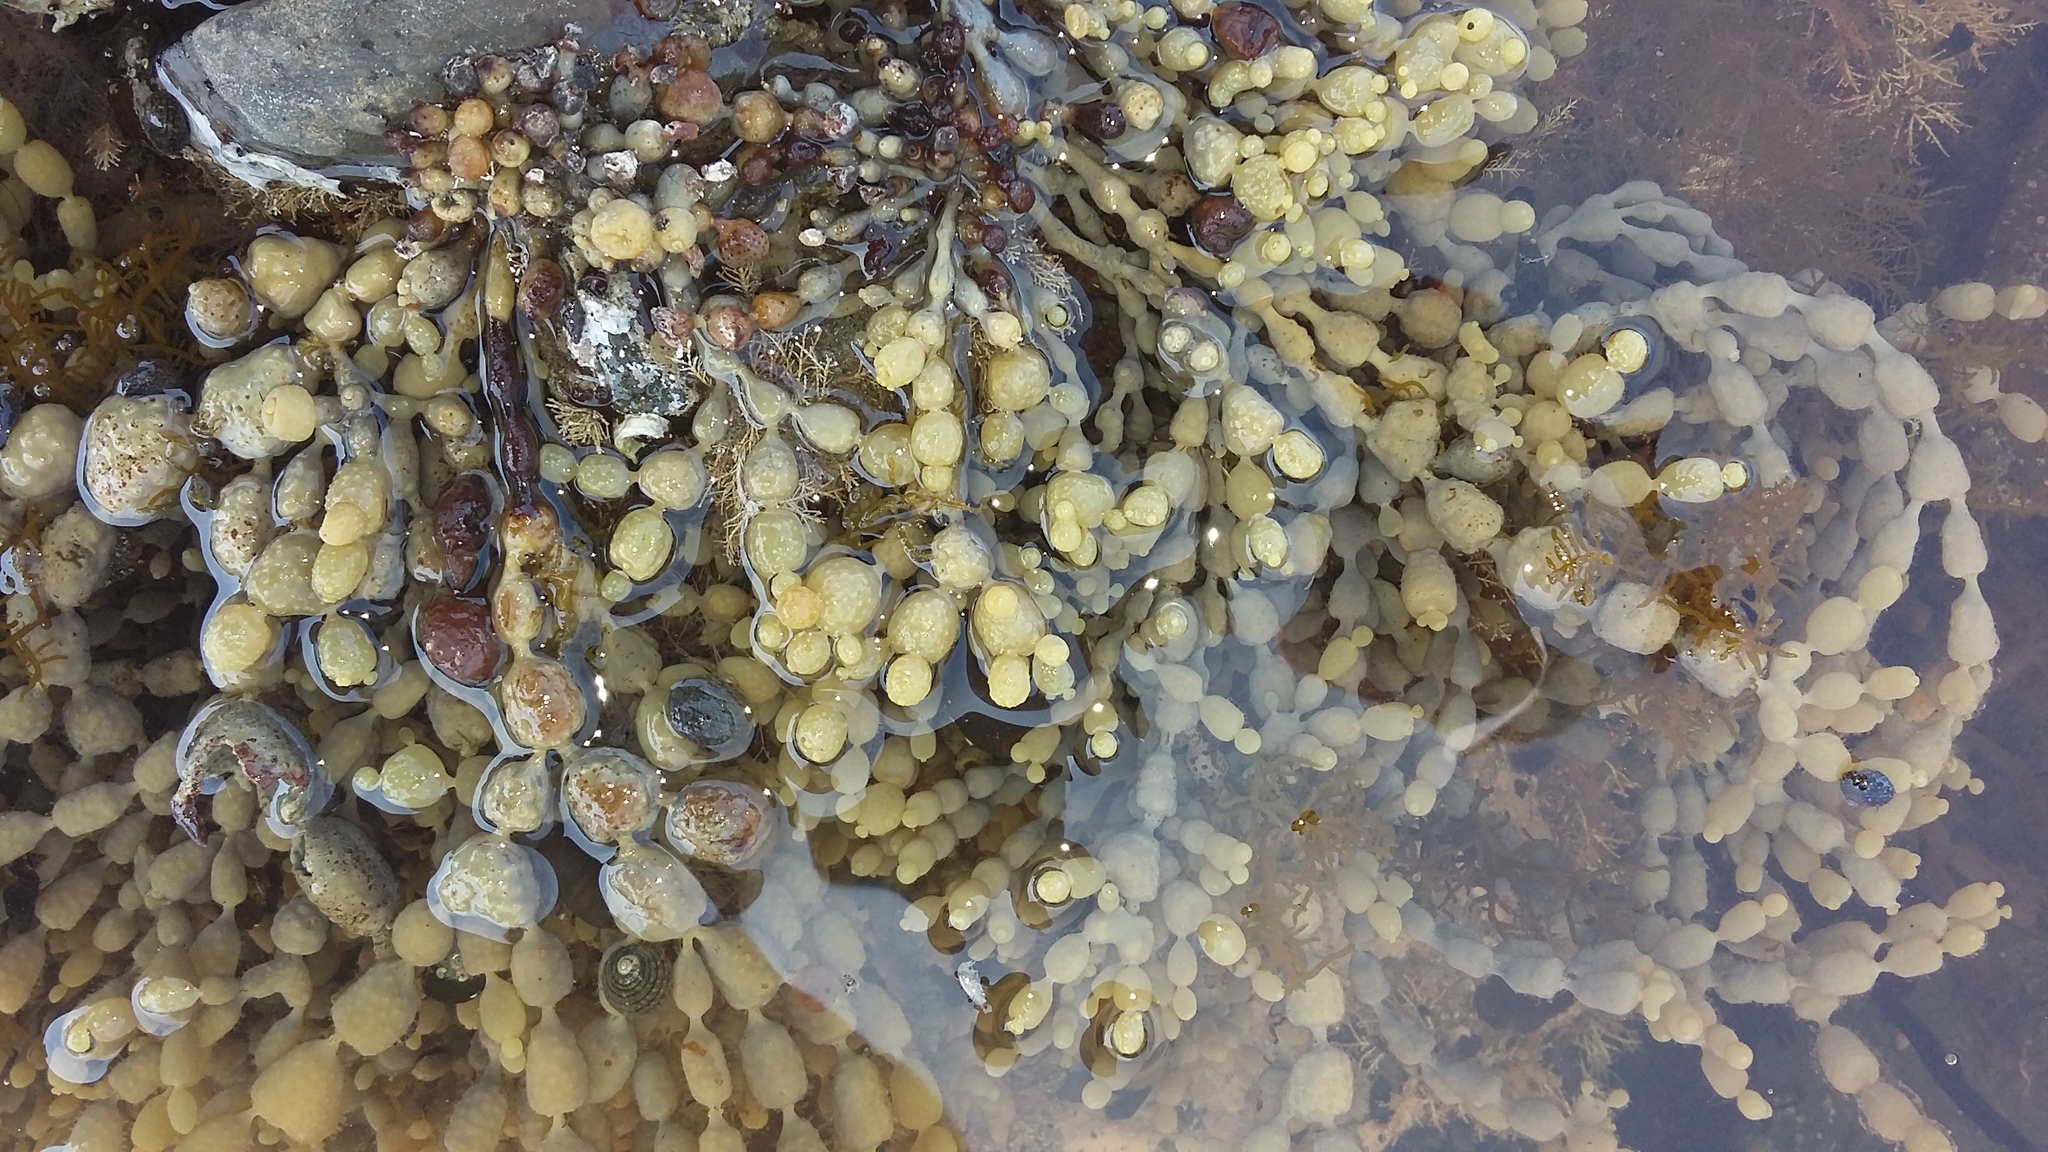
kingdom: Chromista
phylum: Ochrophyta
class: Phaeophyceae
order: Fucales
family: Hormosiraceae
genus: Hormosira
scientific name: Hormosira banksii
